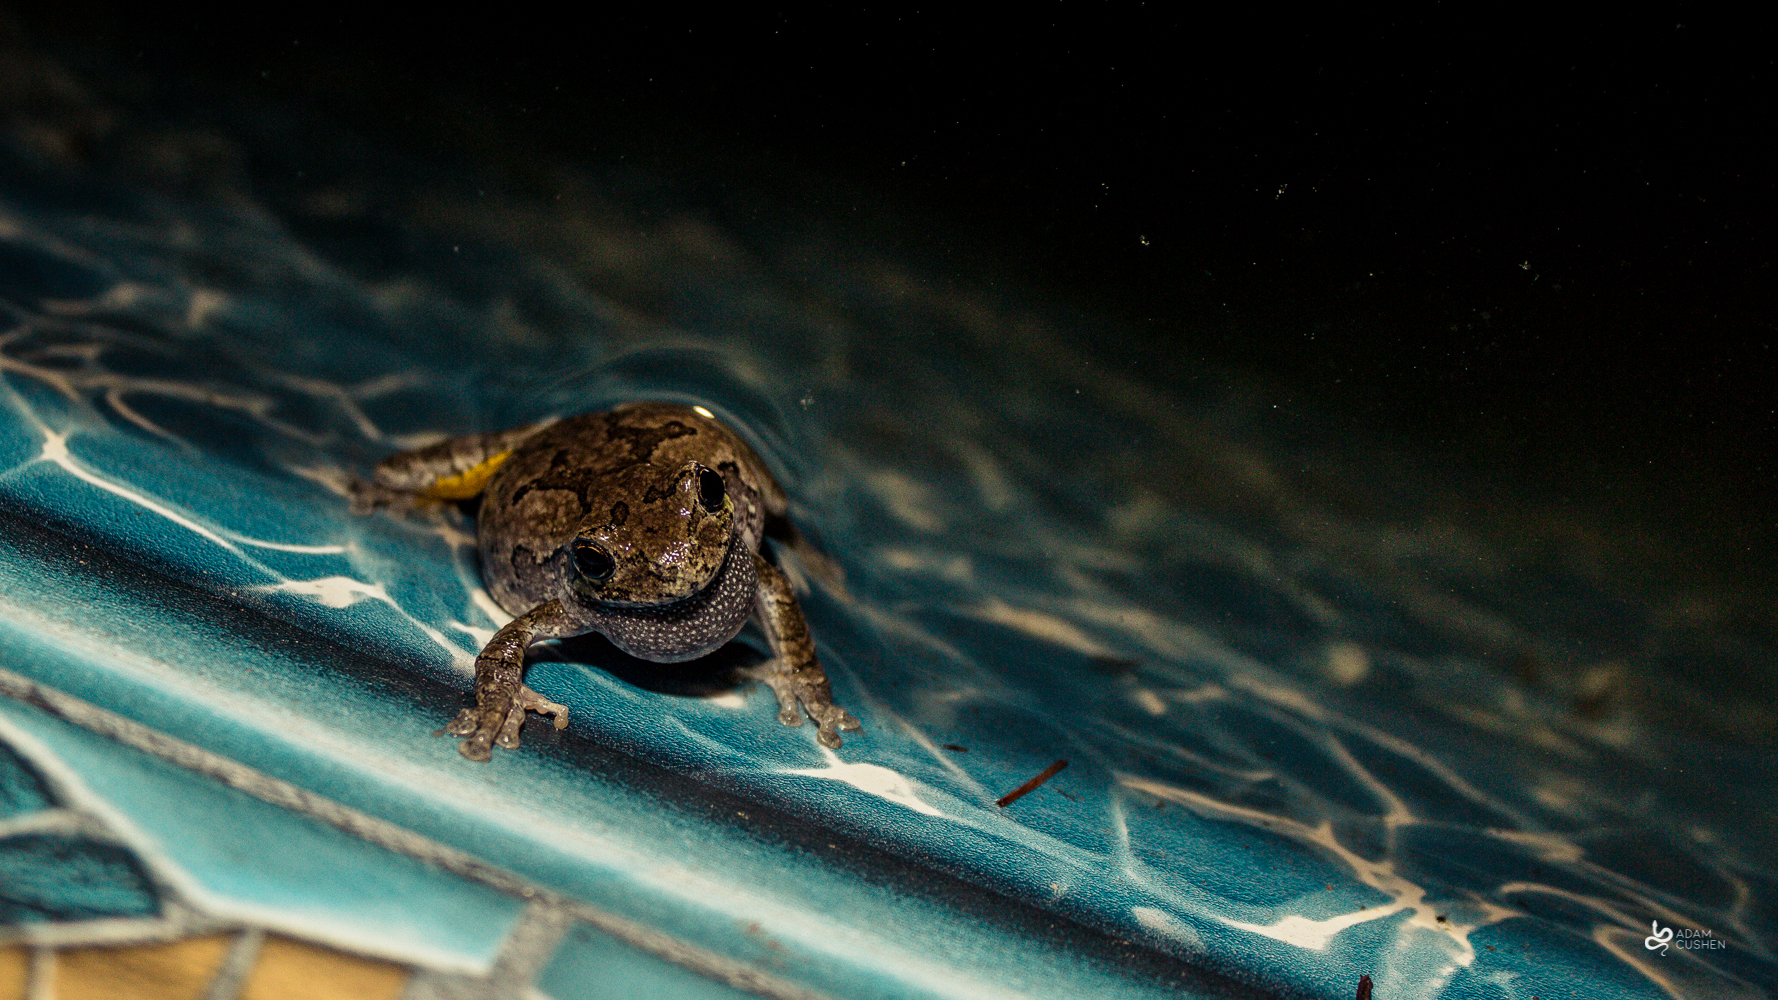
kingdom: Animalia
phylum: Chordata
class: Amphibia
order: Anura
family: Hylidae
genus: Dryophytes
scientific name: Dryophytes versicolor
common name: Gray treefrog
